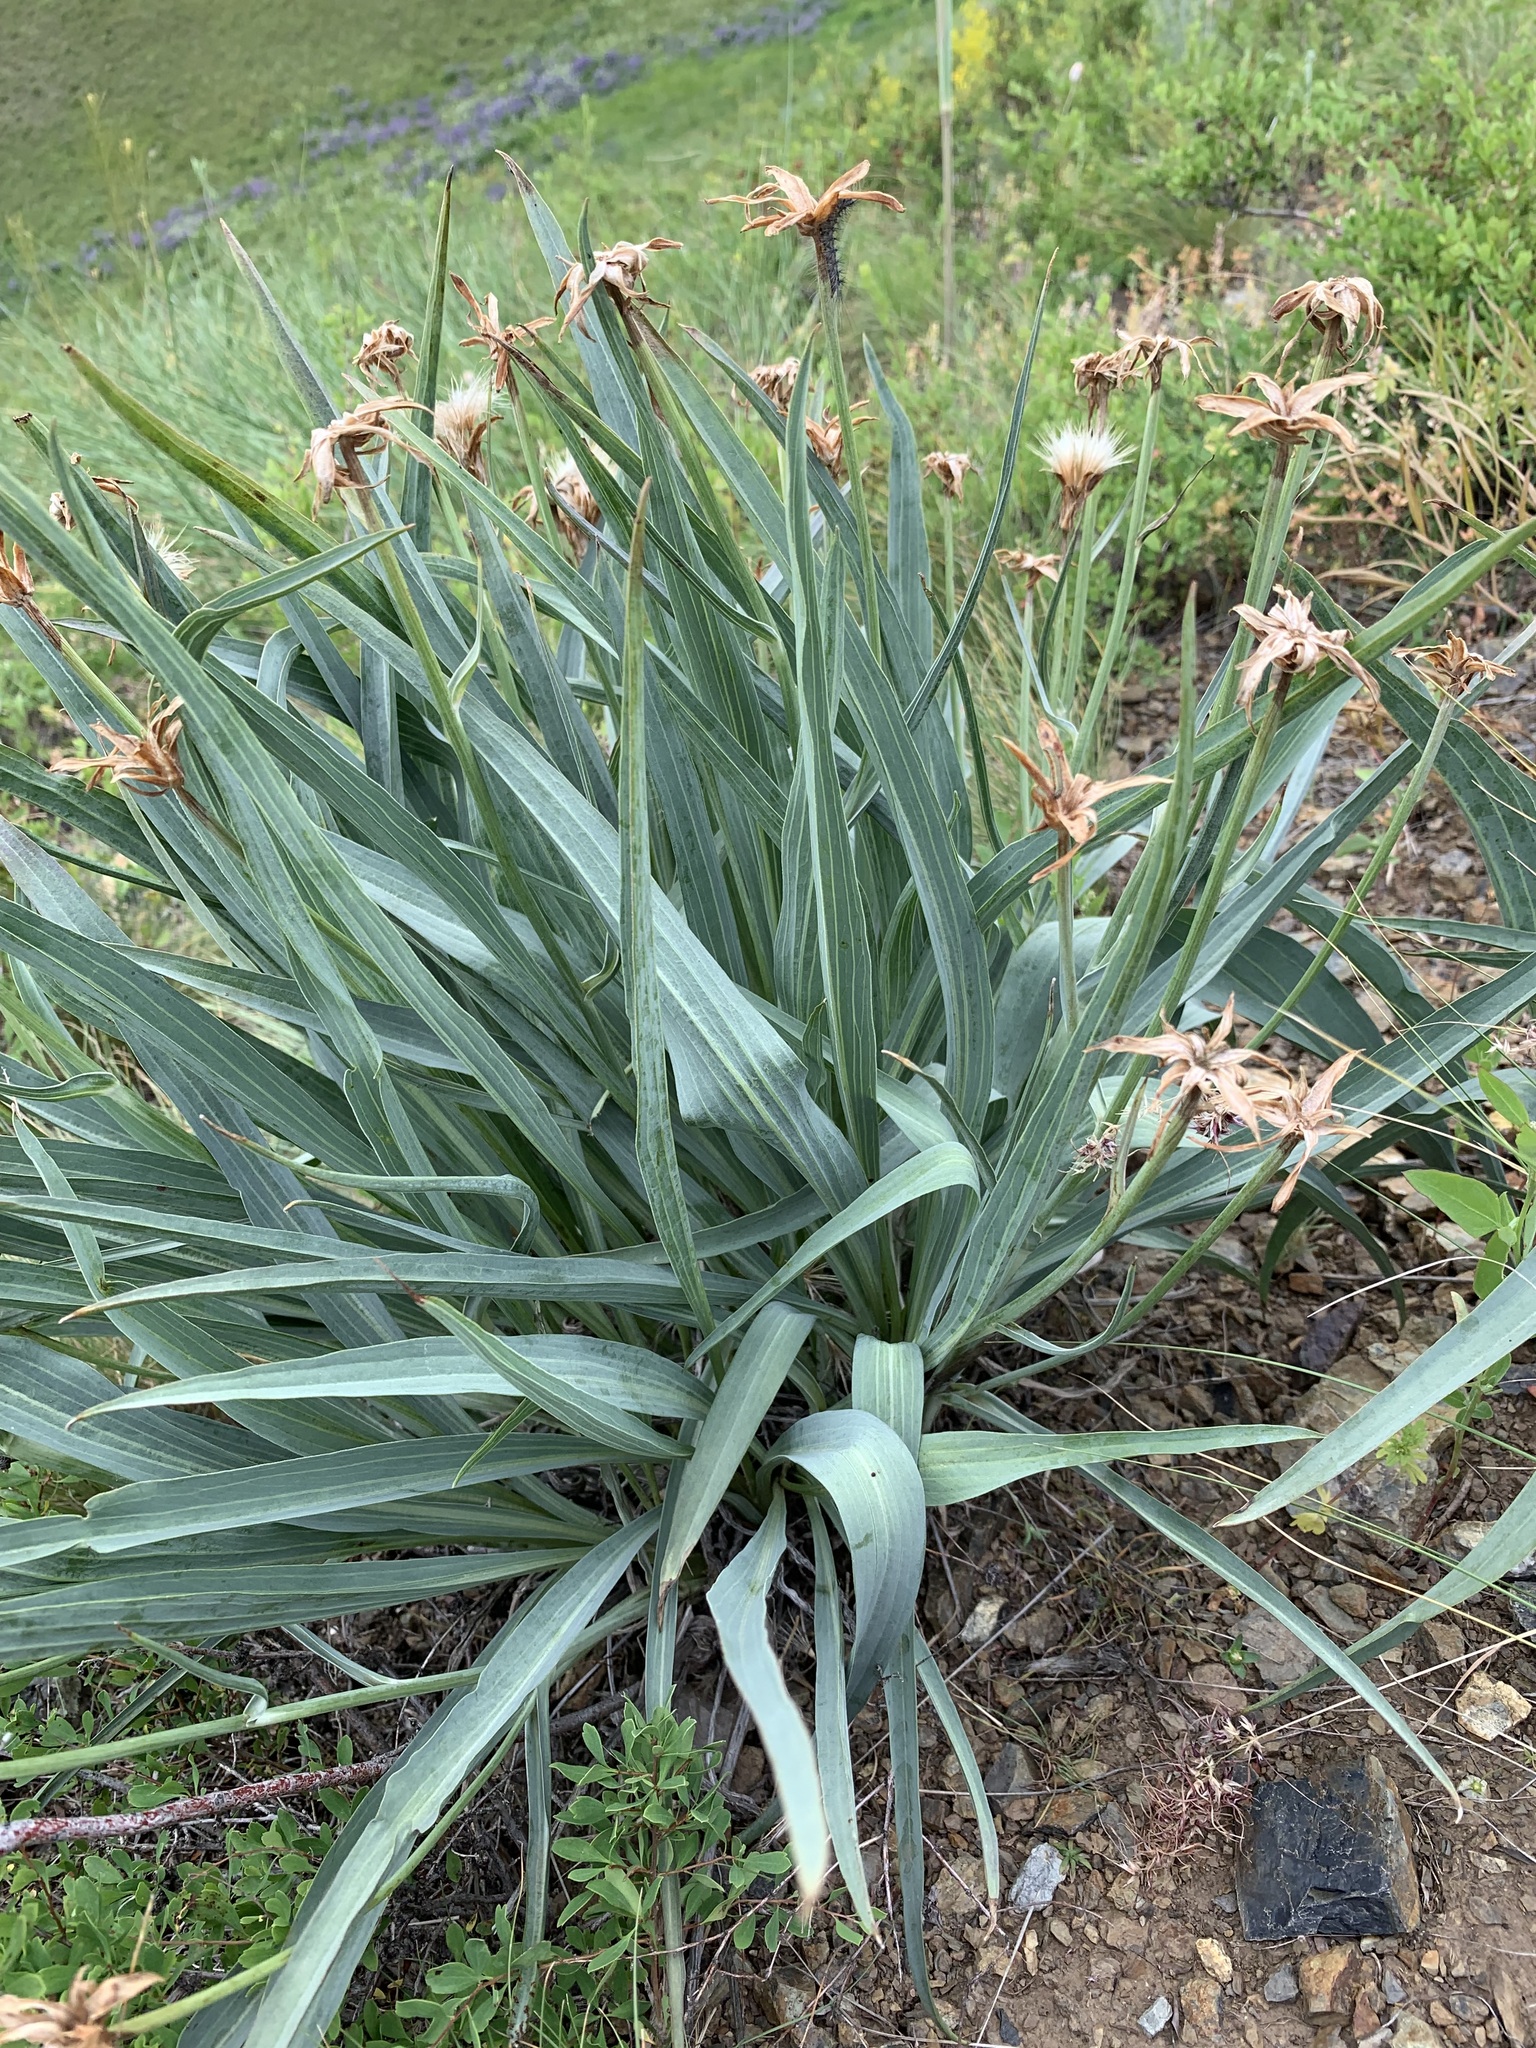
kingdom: Plantae
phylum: Tracheophyta
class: Magnoliopsida
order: Asterales
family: Asteraceae
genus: Takhtajaniantha
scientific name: Takhtajaniantha austriaca
